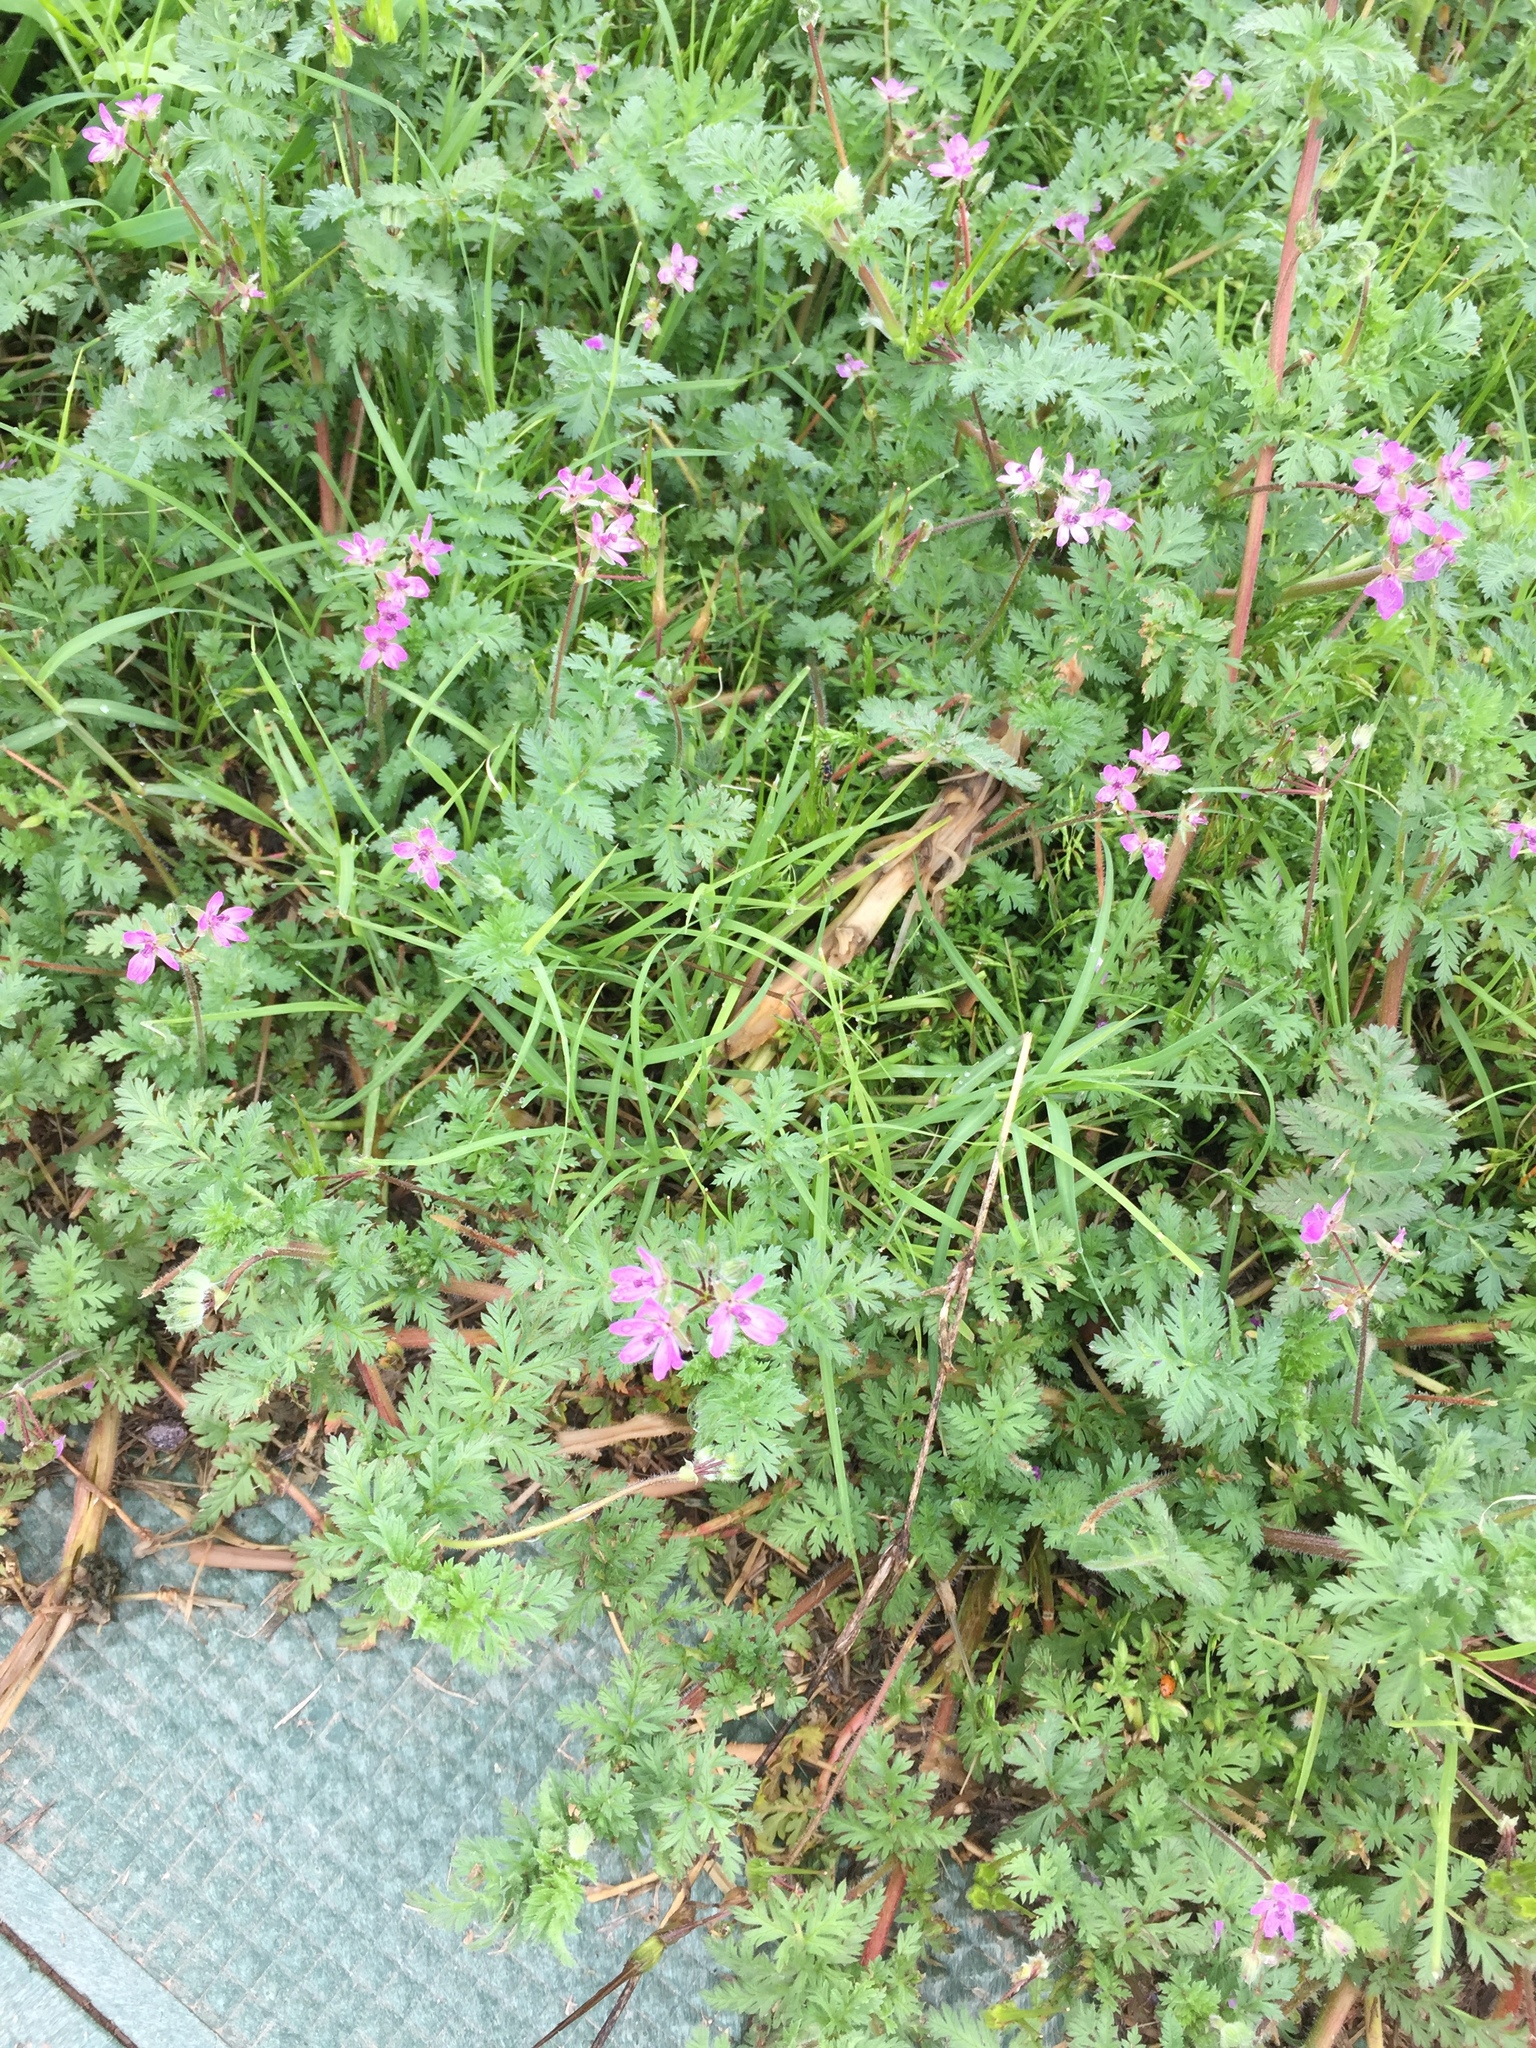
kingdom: Plantae
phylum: Tracheophyta
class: Magnoliopsida
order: Geraniales
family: Geraniaceae
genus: Erodium
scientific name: Erodium cicutarium
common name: Common stork's-bill
